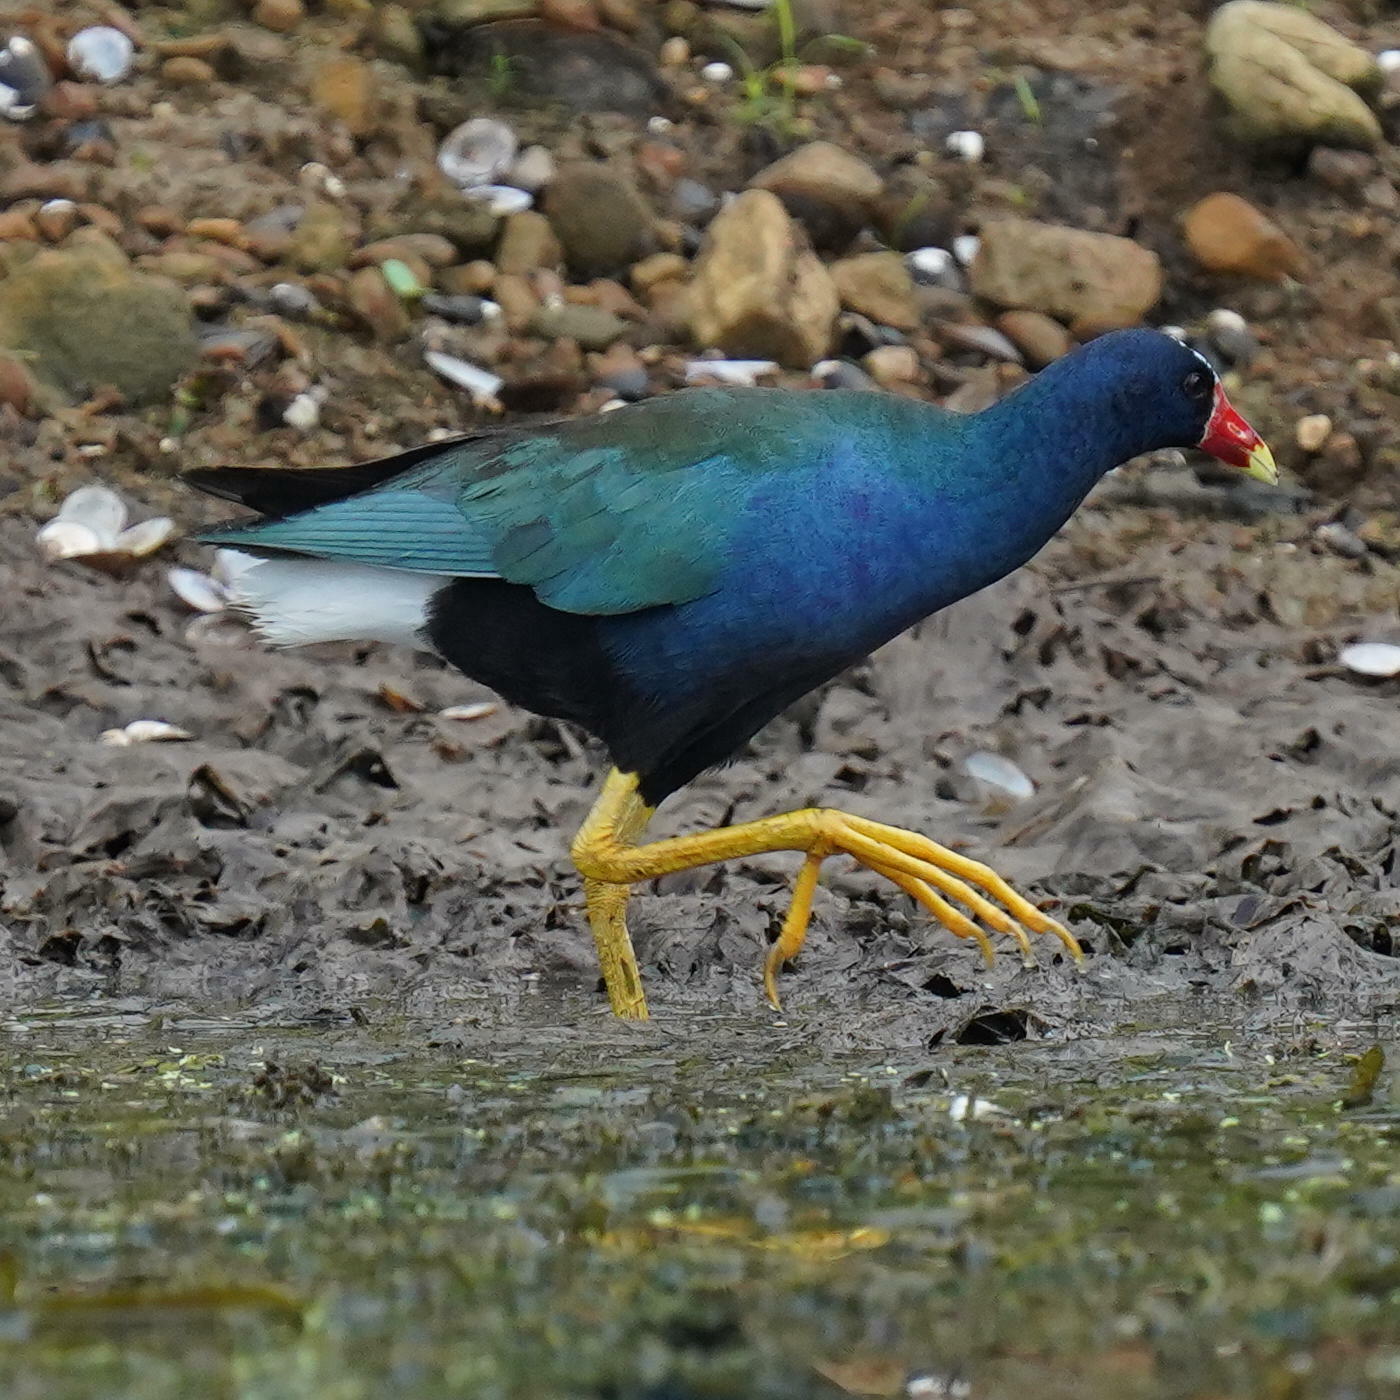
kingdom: Animalia
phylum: Chordata
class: Aves
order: Gruiformes
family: Rallidae
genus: Porphyrio
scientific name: Porphyrio martinica
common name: Purple gallinule
